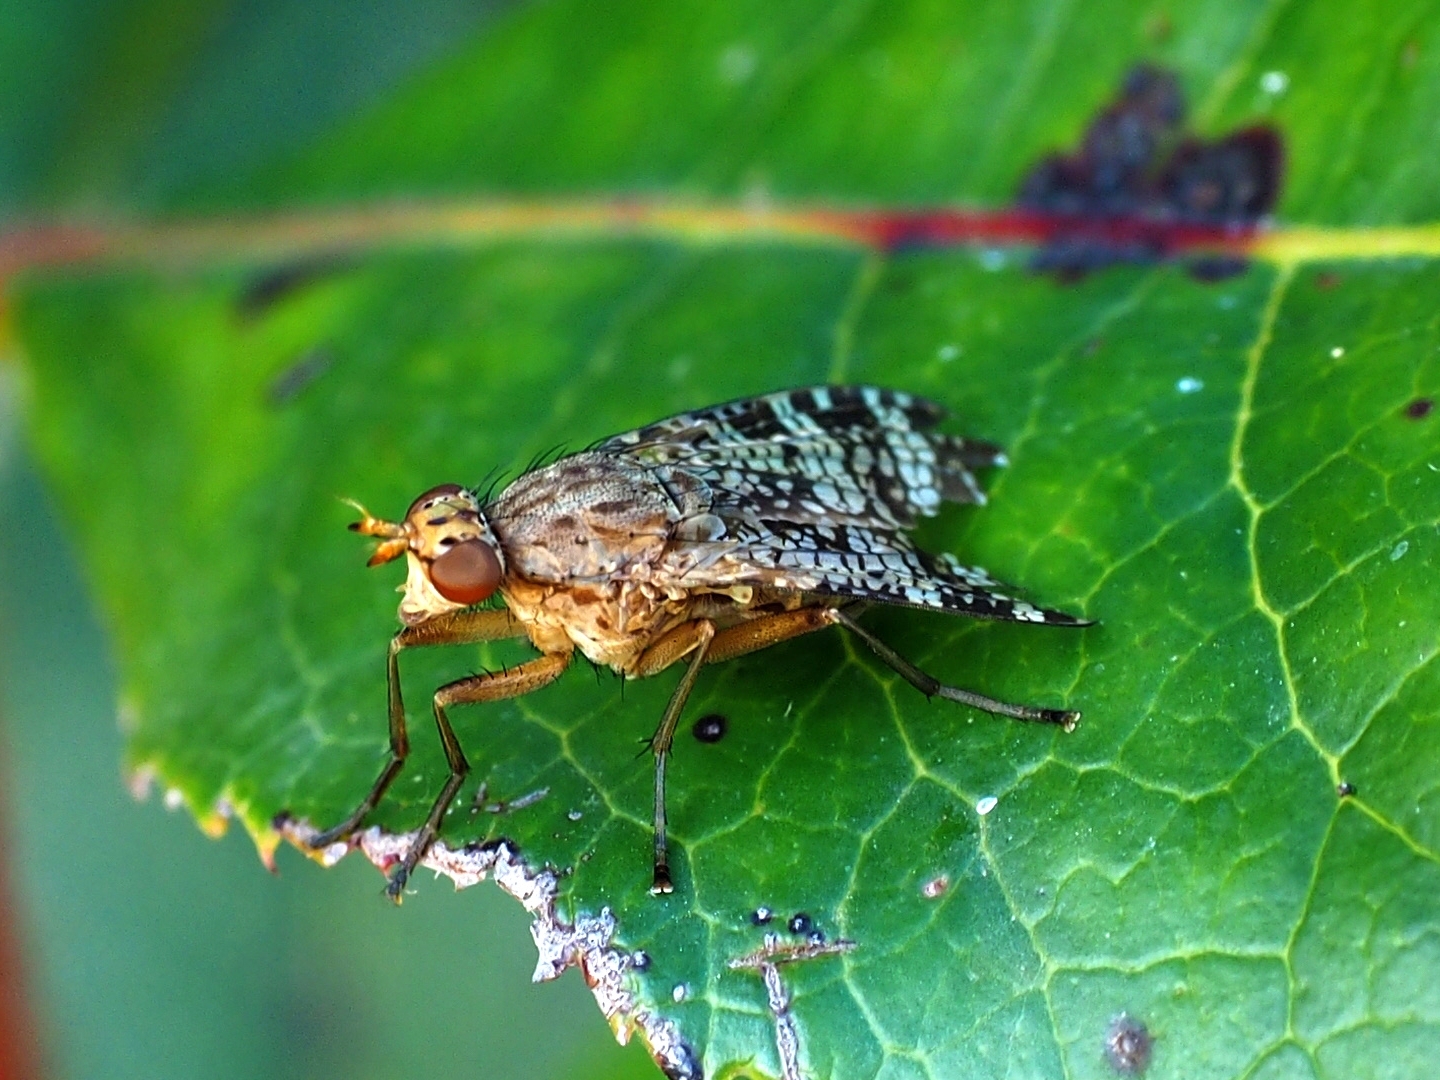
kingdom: Animalia
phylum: Arthropoda
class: Insecta
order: Diptera
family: Sciomyzidae
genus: Euthycera
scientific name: Euthycera chaerophylli
